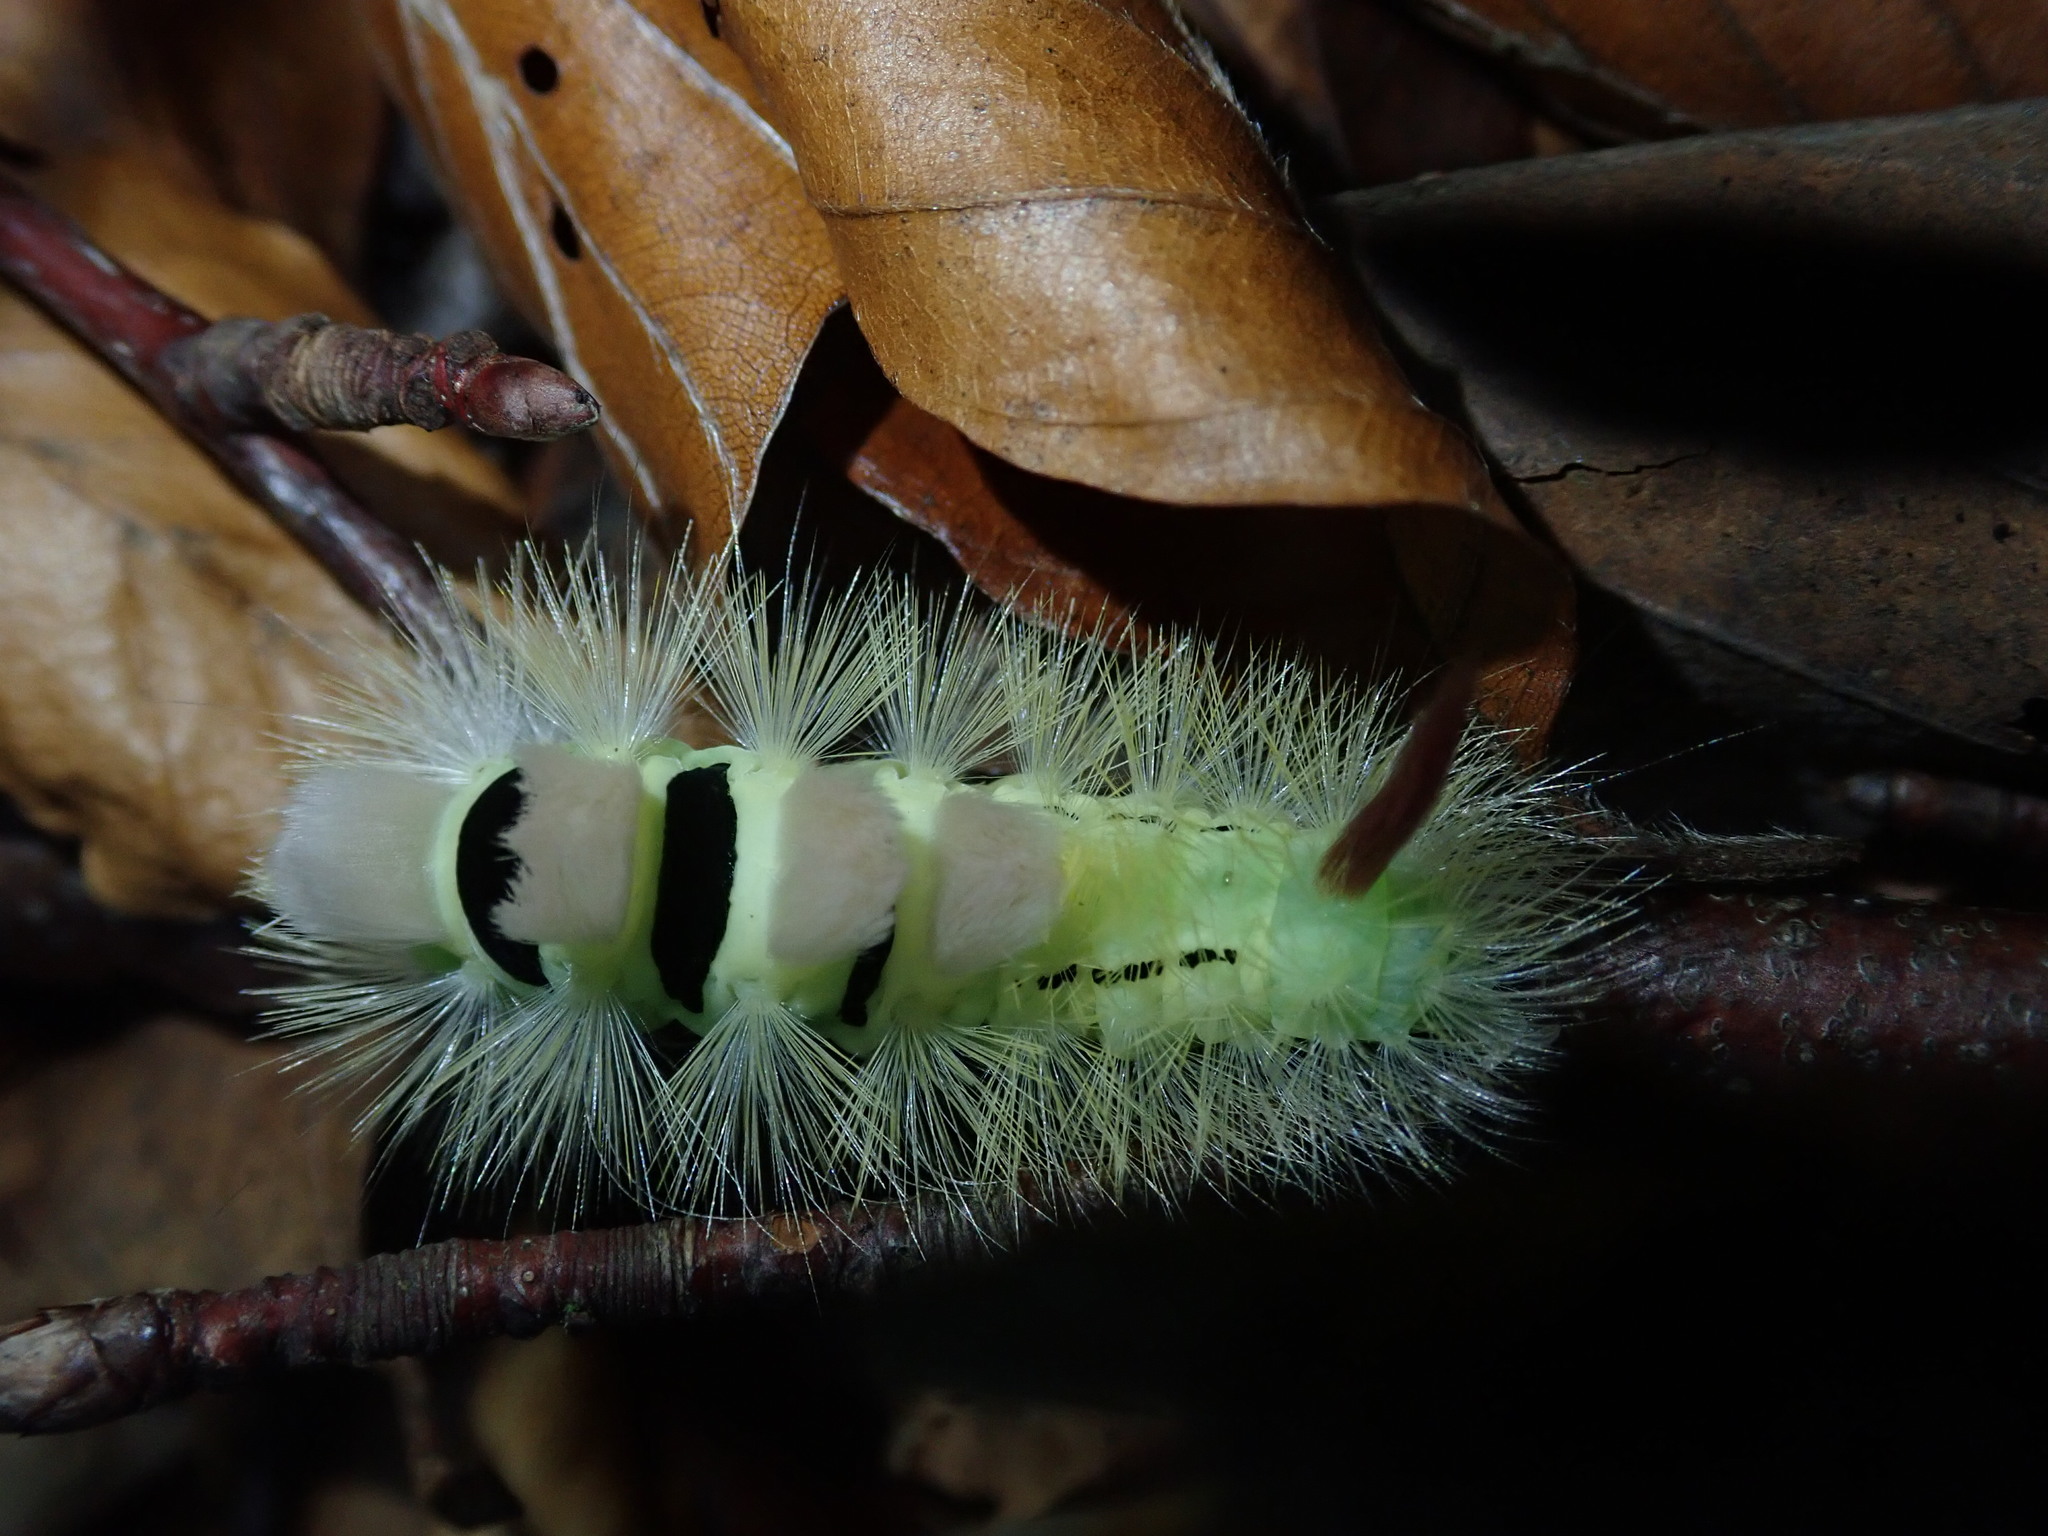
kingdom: Animalia
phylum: Arthropoda
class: Insecta
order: Lepidoptera
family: Erebidae
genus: Calliteara
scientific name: Calliteara pudibunda
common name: Pale tussock
